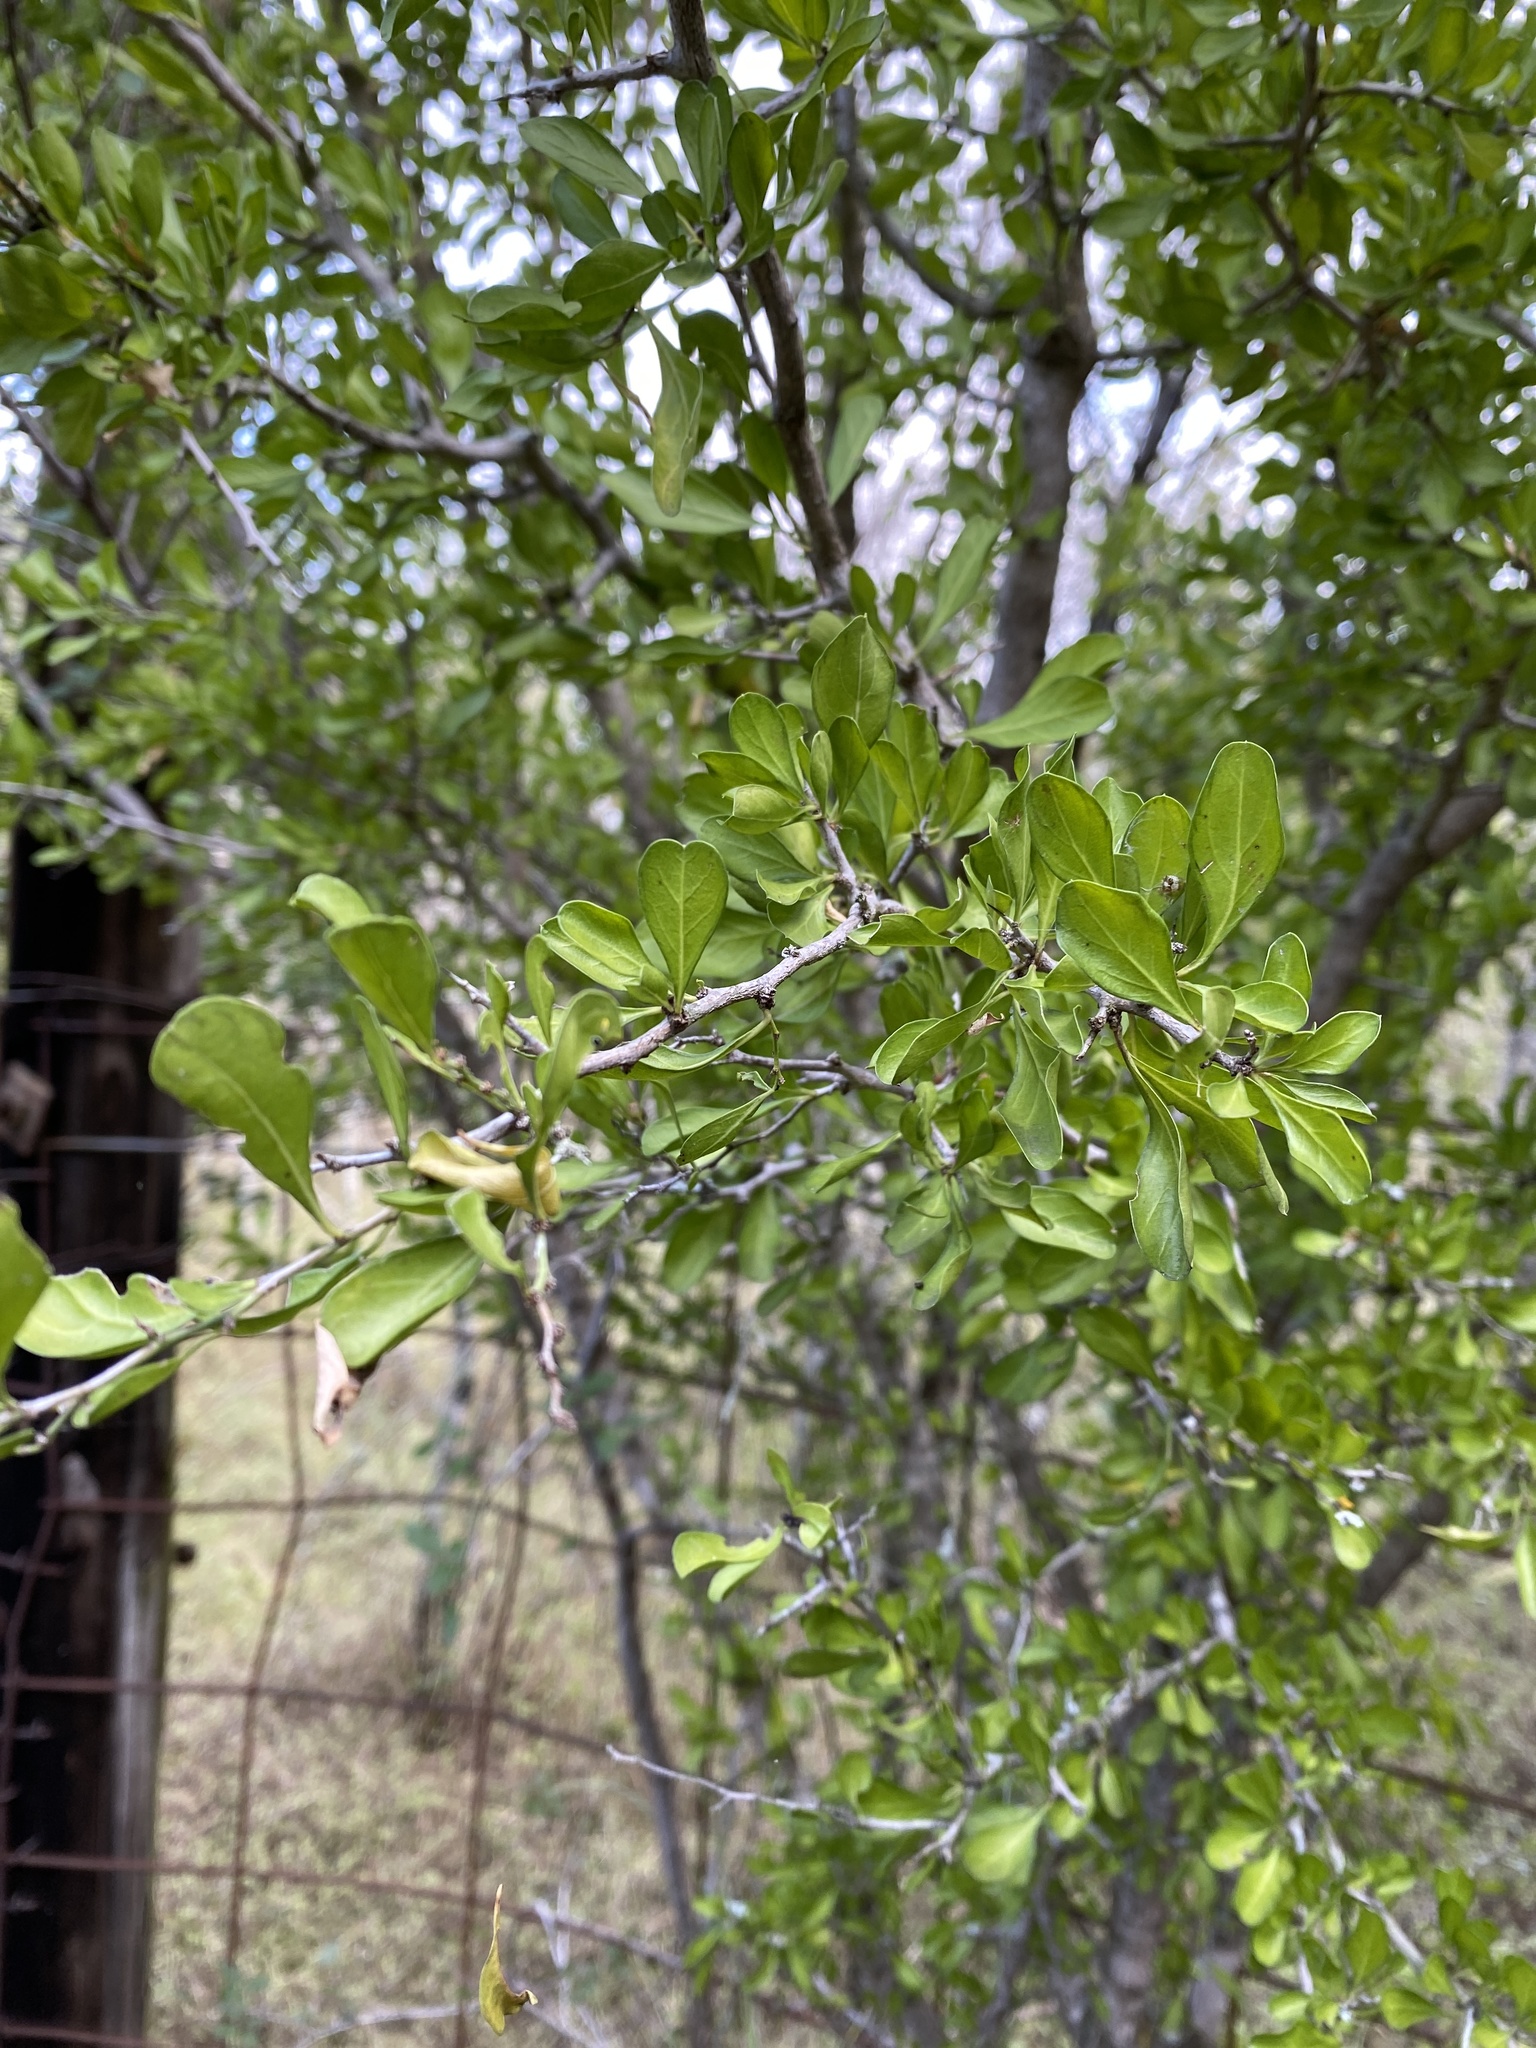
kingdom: Plantae
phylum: Tracheophyta
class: Magnoliopsida
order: Rosales
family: Rhamnaceae
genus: Condalia
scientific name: Condalia hookeri
